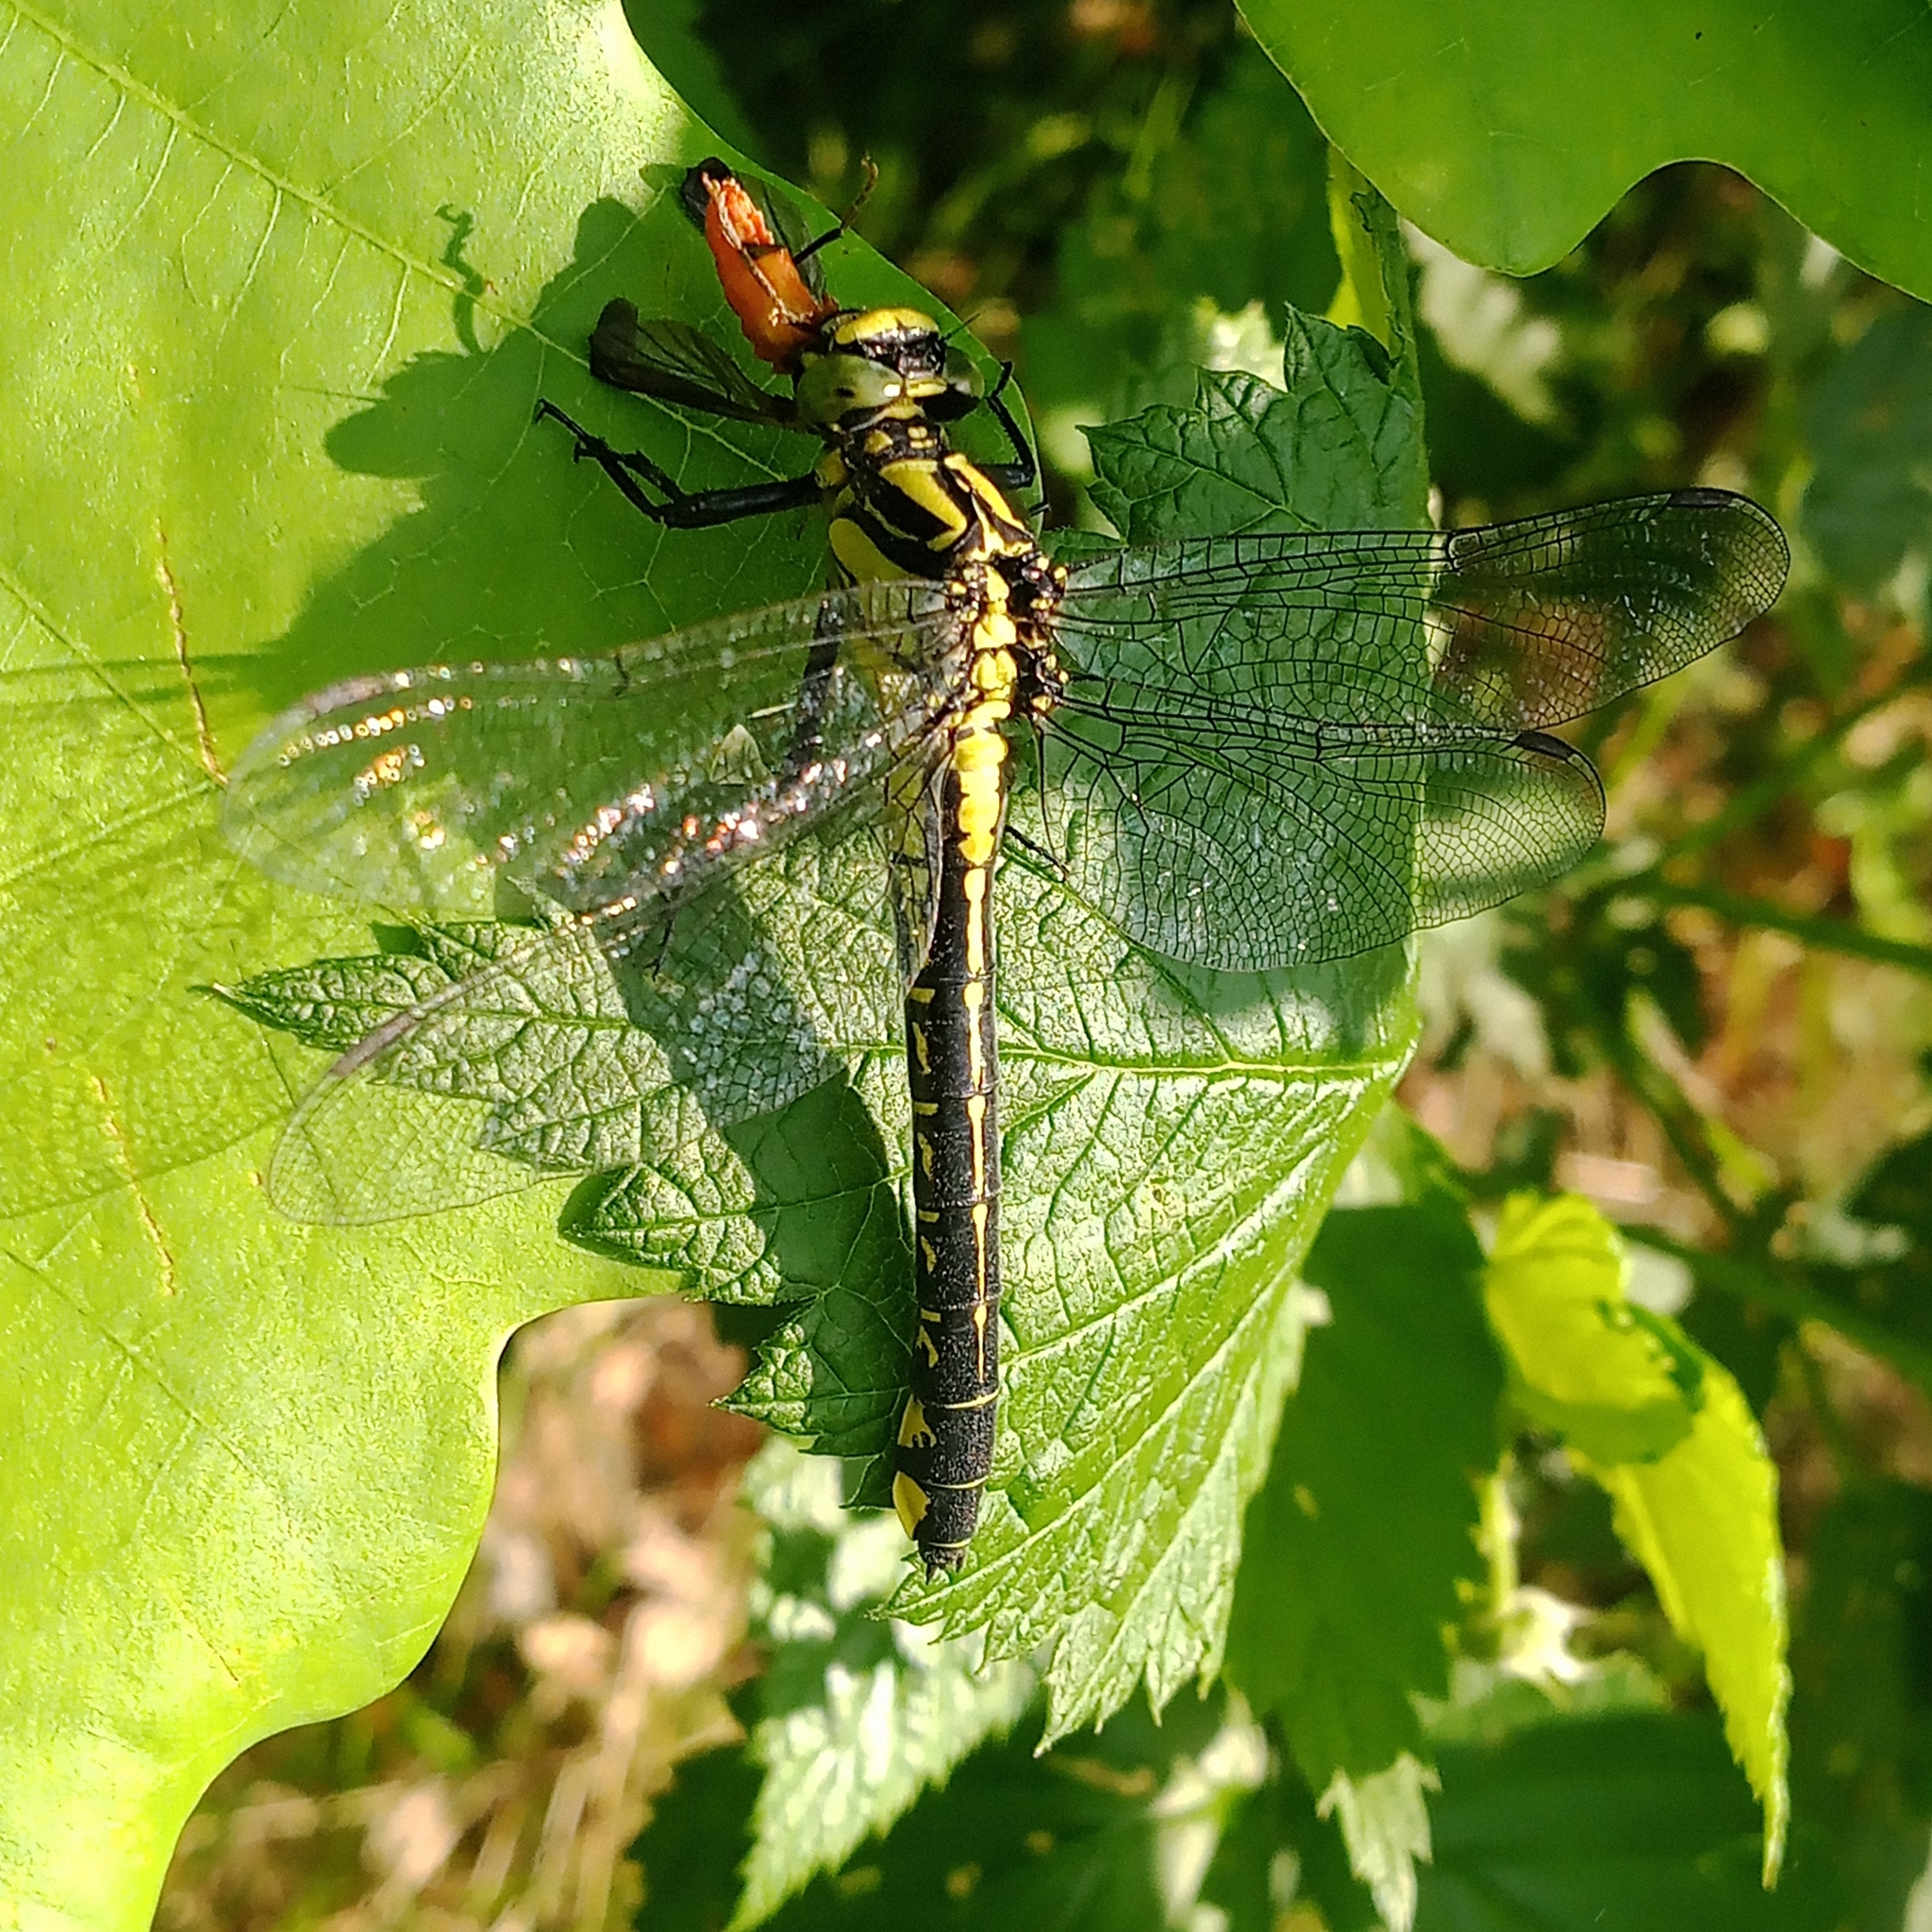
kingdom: Animalia
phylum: Arthropoda
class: Insecta
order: Odonata
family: Gomphidae
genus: Gomphus
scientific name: Gomphus vulgatissimus
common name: Club-tailed dragonfly
